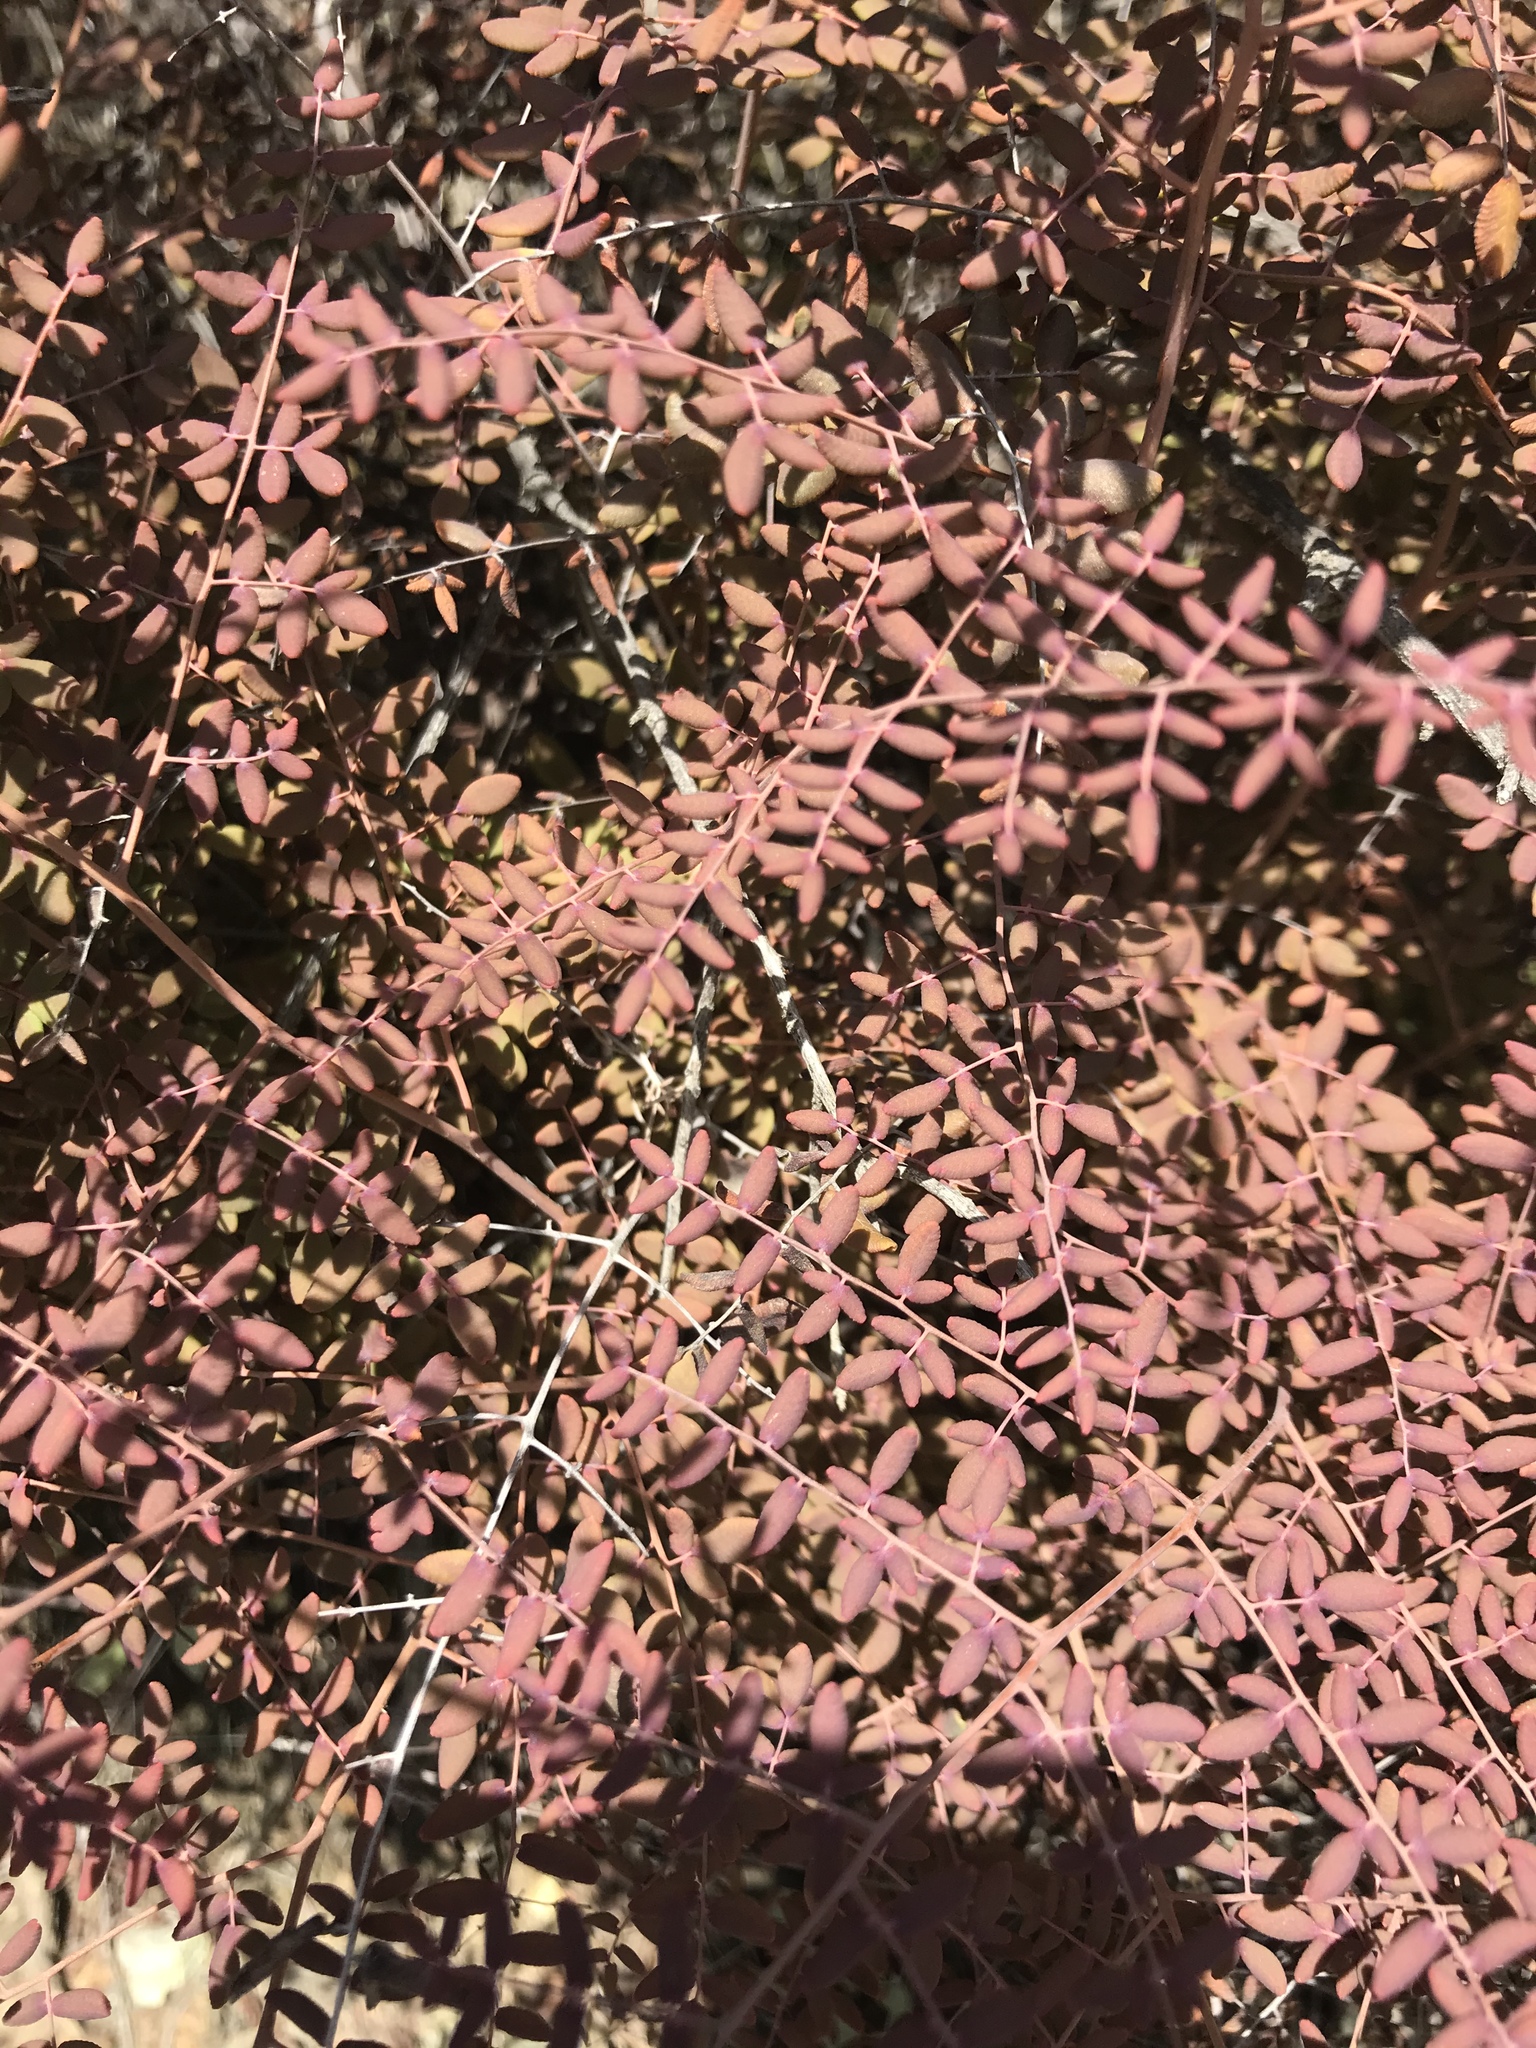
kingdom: Plantae
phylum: Tracheophyta
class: Polypodiopsida
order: Polypodiales
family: Pteridaceae
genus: Pellaea
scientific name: Pellaea andromedifolia
